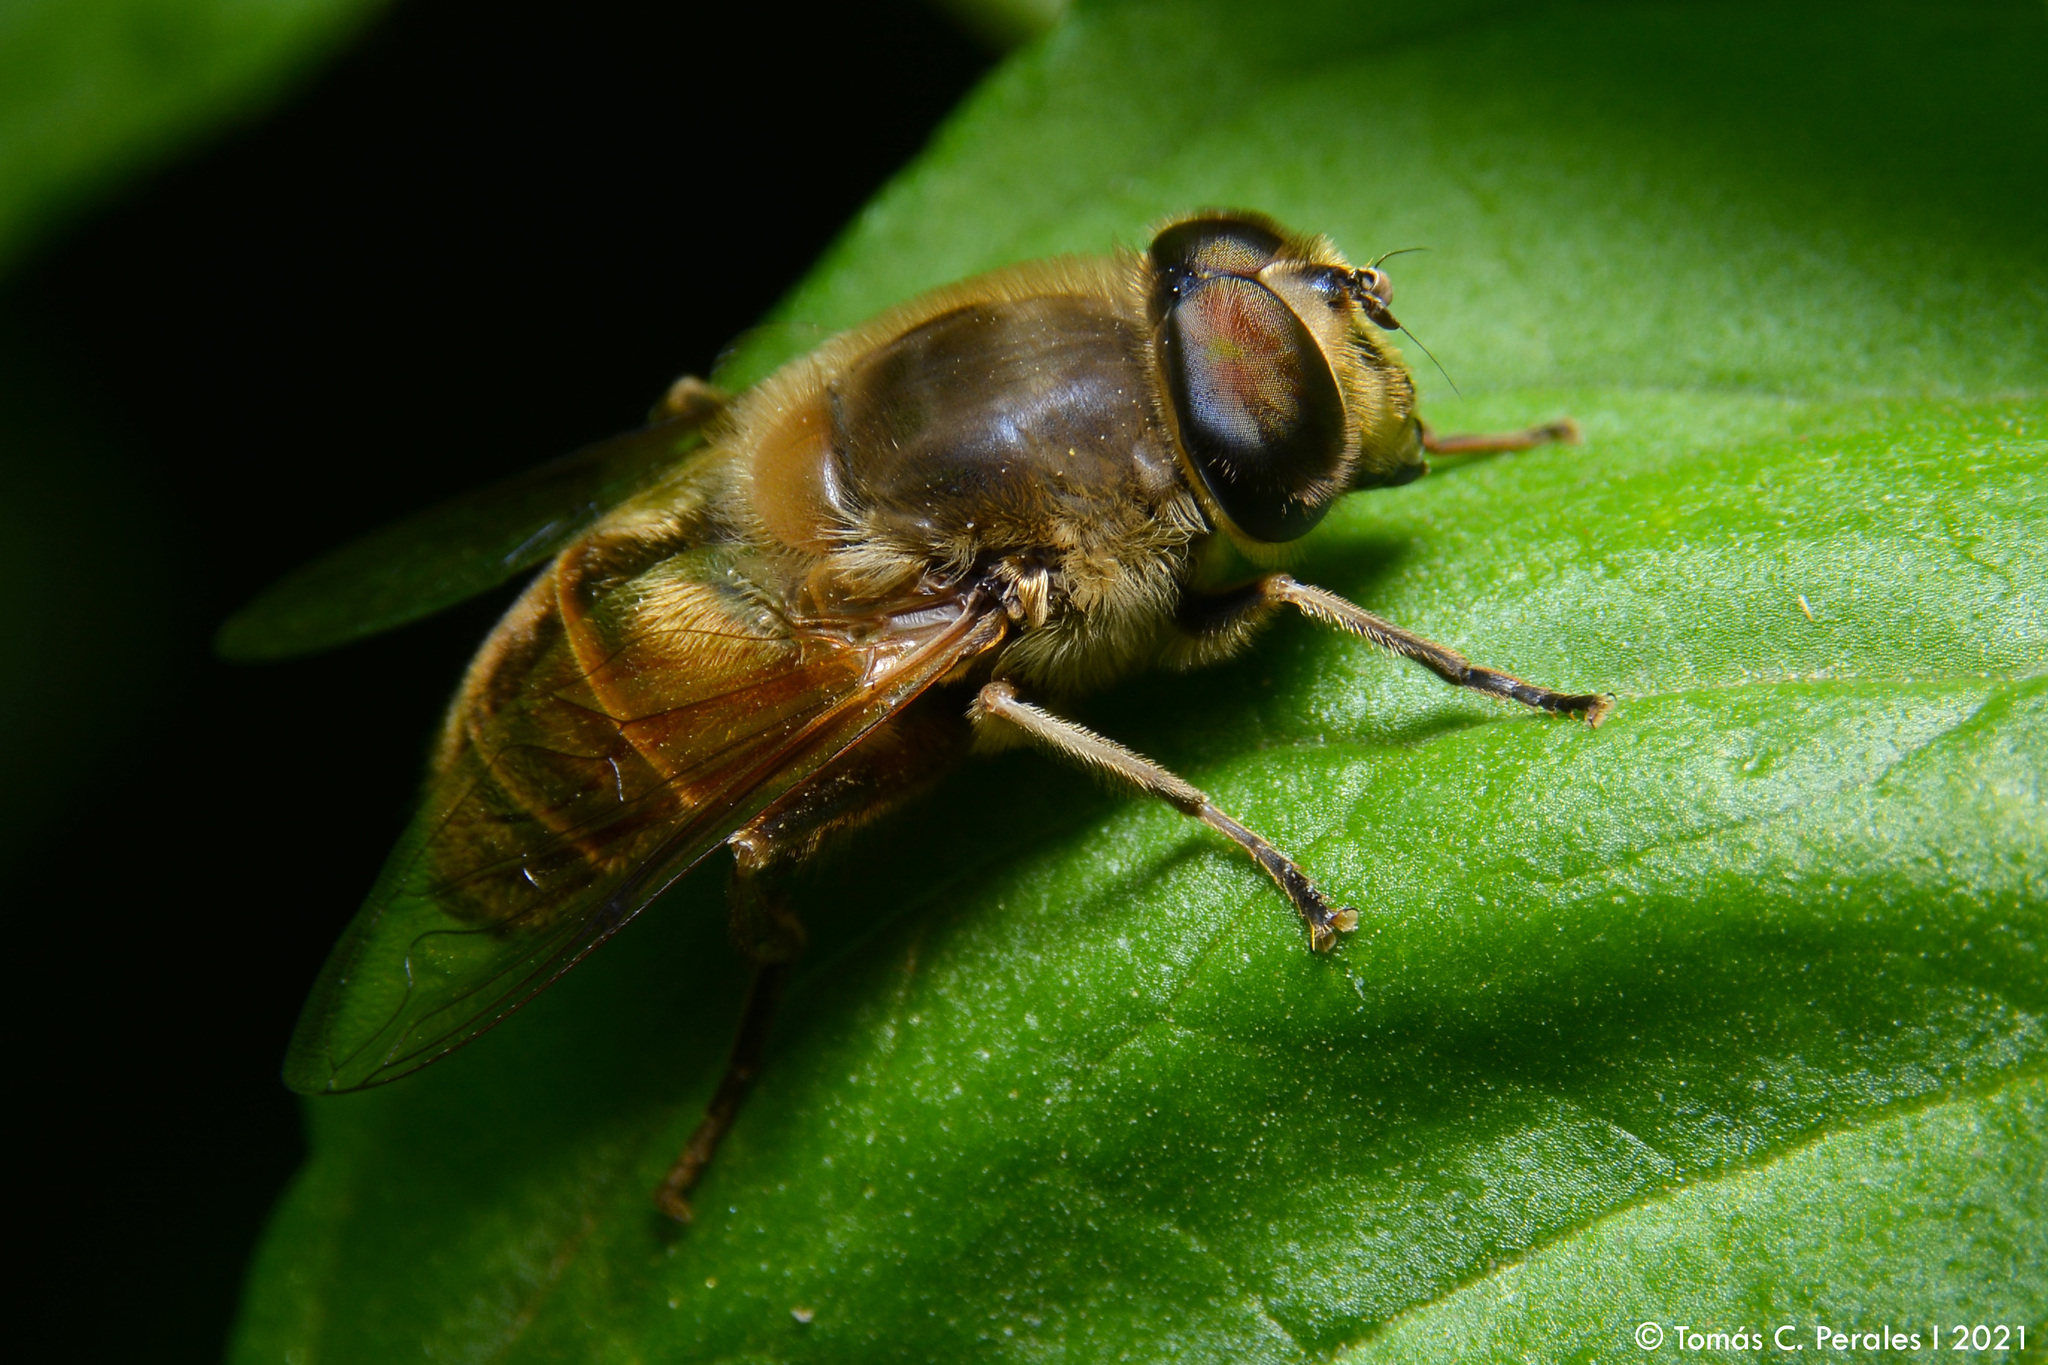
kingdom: Animalia
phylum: Arthropoda
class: Insecta
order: Diptera
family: Syrphidae
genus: Eristalis
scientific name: Eristalis tenax
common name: Drone fly
